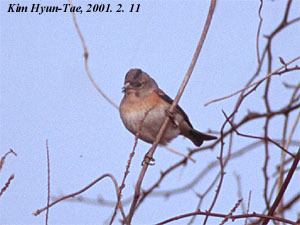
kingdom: Animalia
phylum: Chordata
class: Aves
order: Passeriformes
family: Fringillidae
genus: Fringilla
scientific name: Fringilla montifringilla
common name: Brambling
